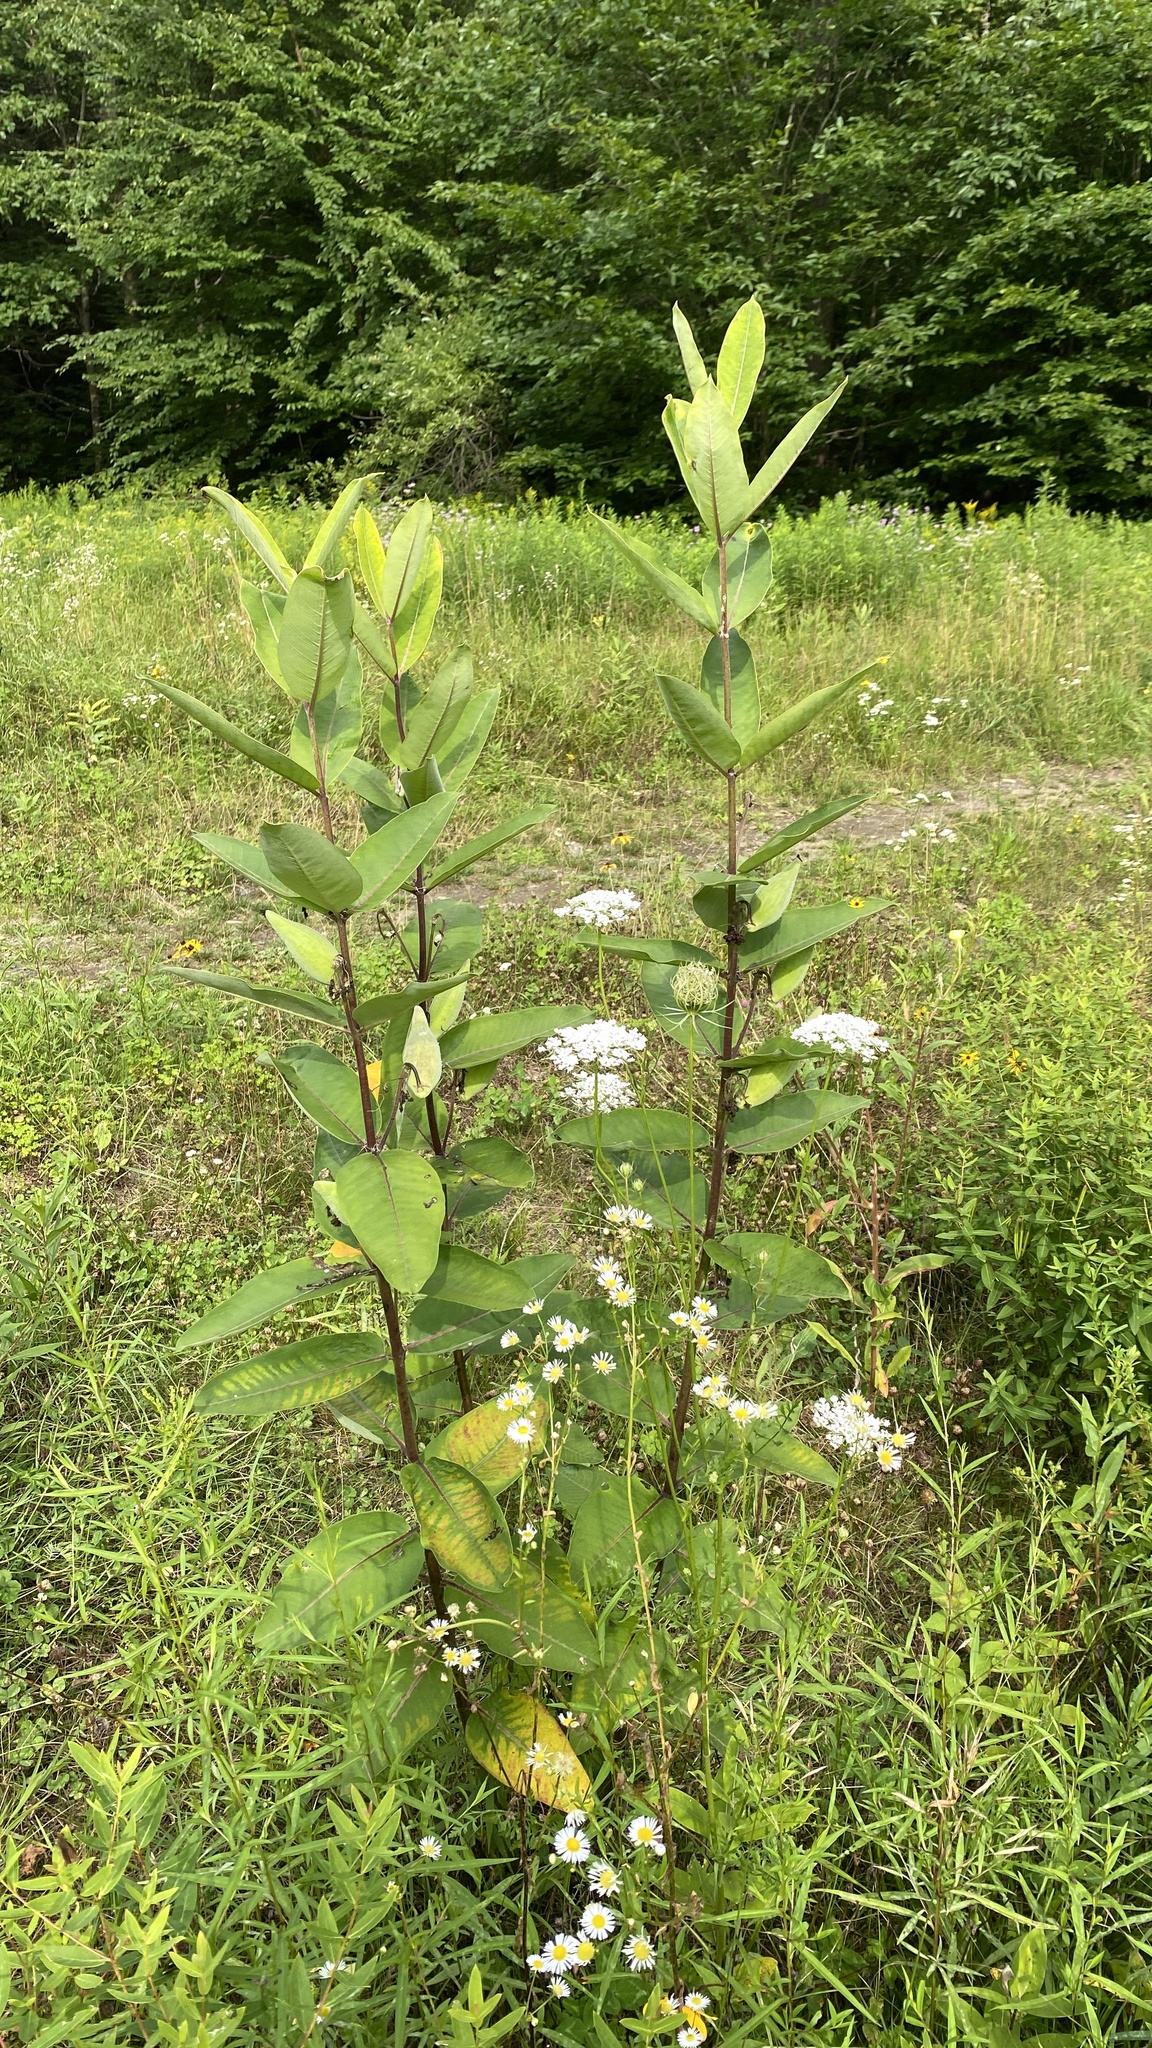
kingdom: Plantae
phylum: Tracheophyta
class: Magnoliopsida
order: Gentianales
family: Apocynaceae
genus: Asclepias
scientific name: Asclepias syriaca
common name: Common milkweed
